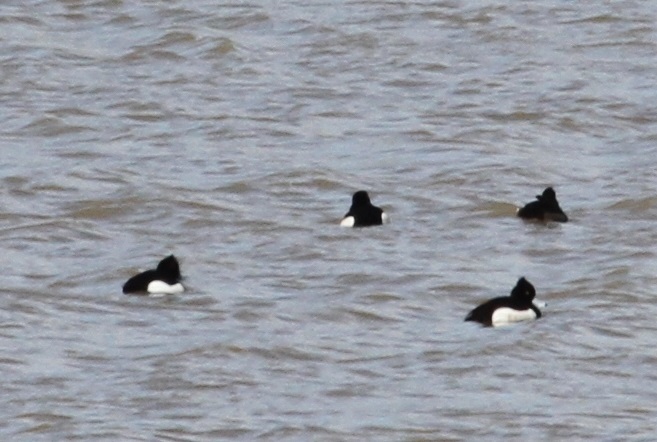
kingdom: Animalia
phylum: Chordata
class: Aves
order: Anseriformes
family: Anatidae
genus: Aythya
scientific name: Aythya fuligula
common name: Tufted duck
